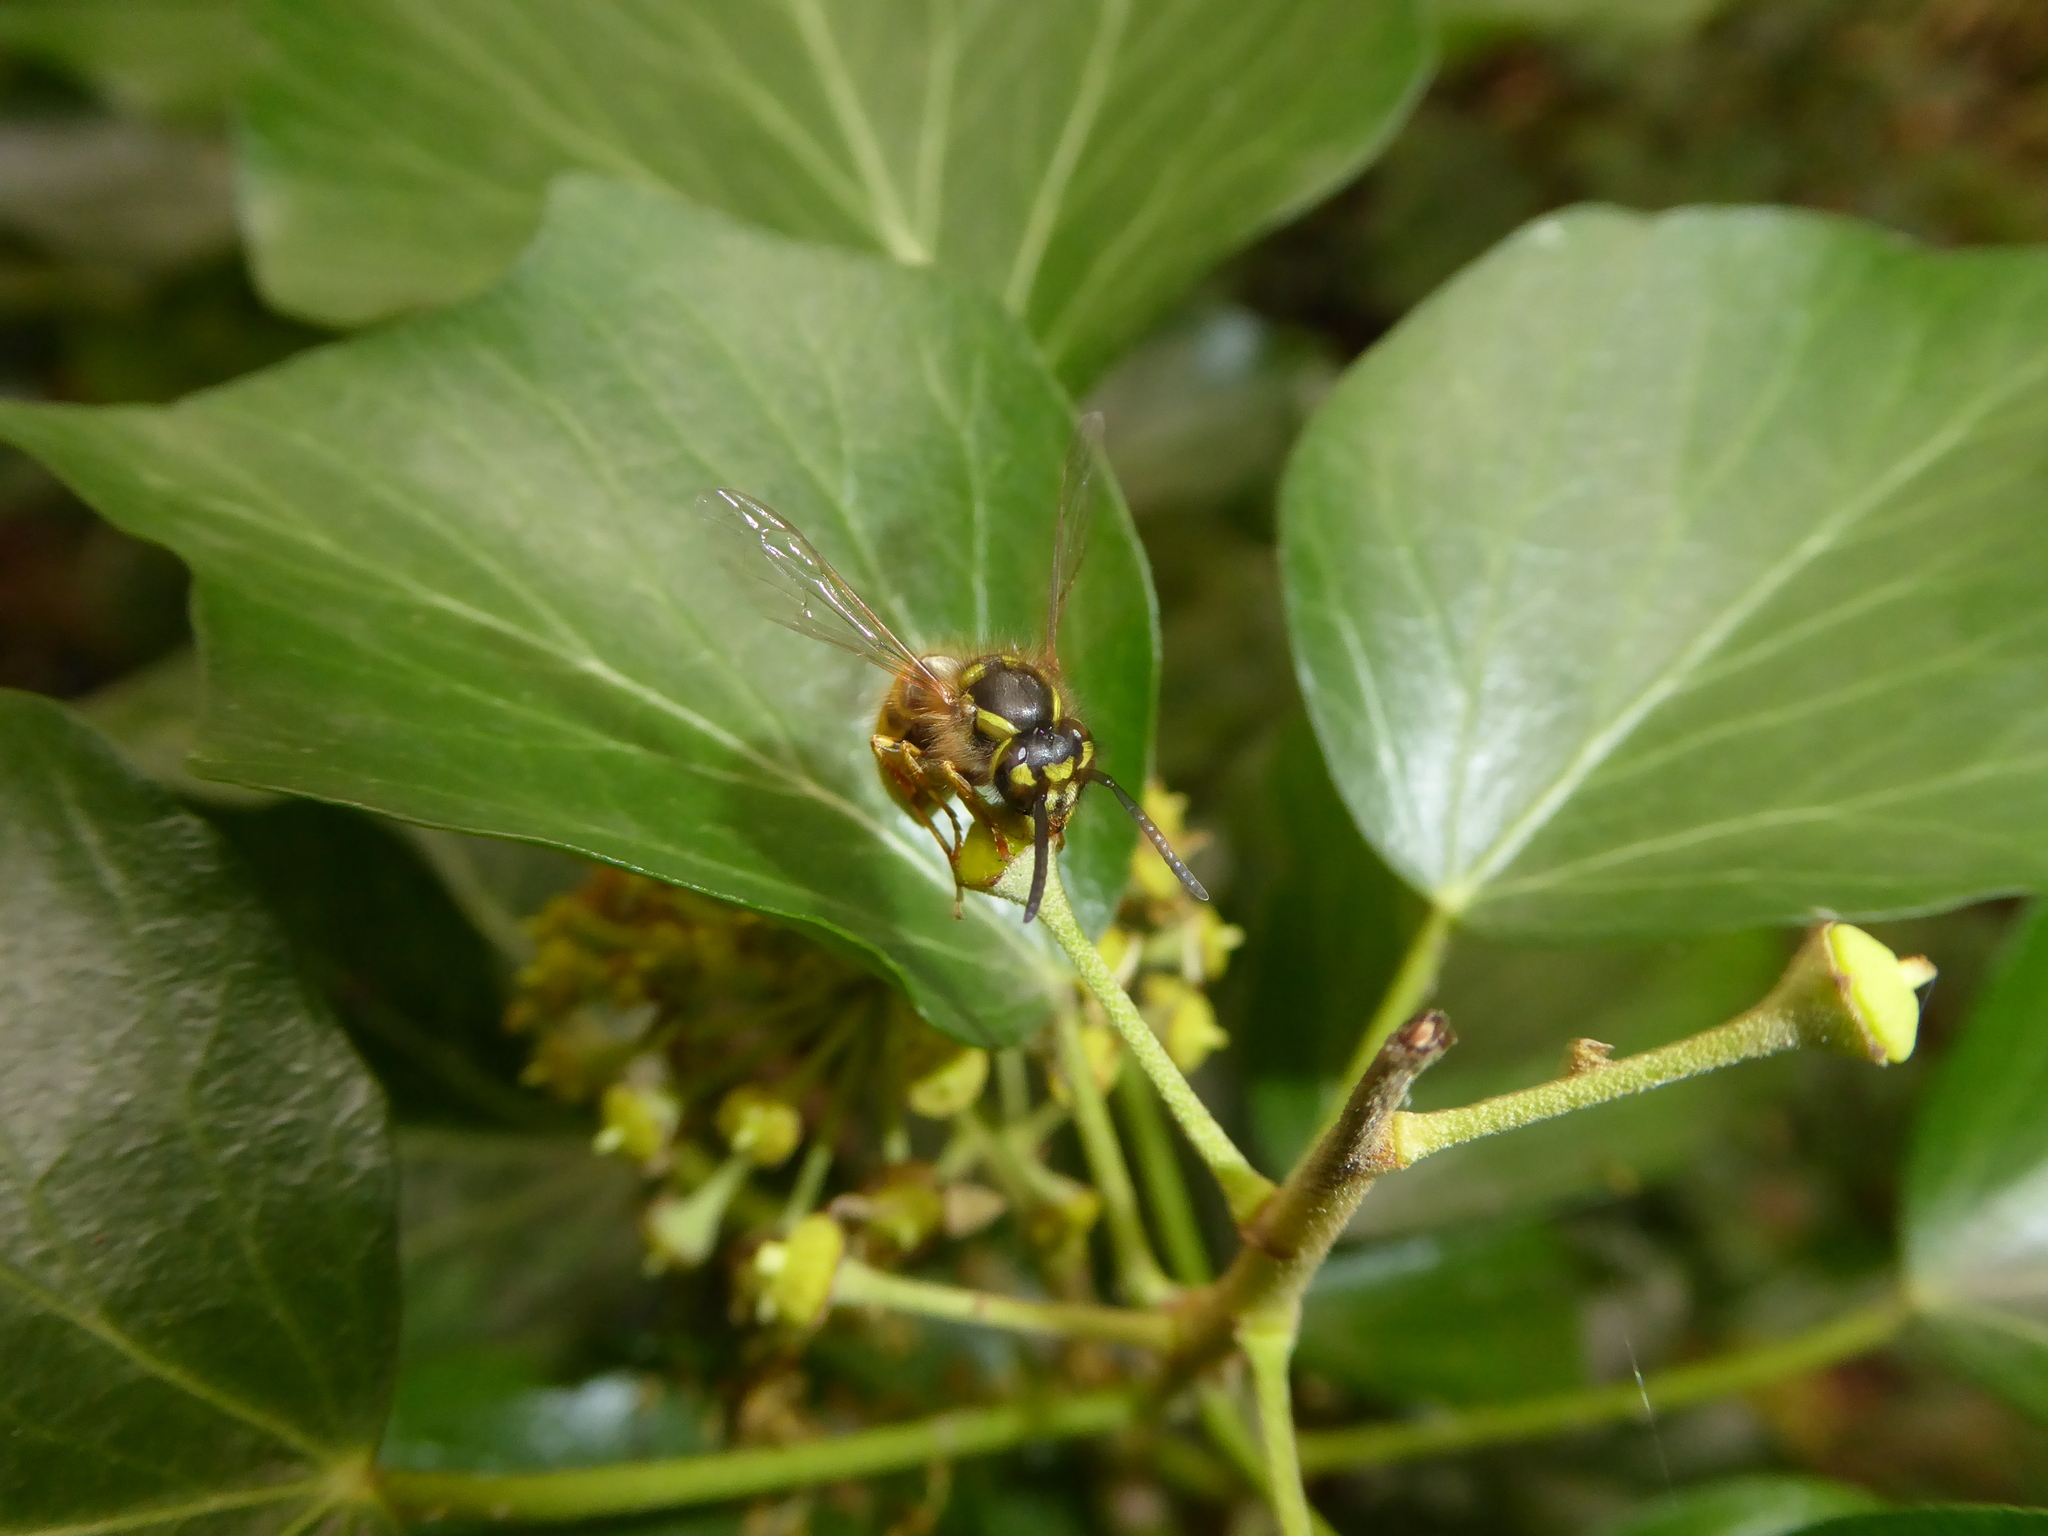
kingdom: Animalia
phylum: Arthropoda
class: Insecta
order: Hymenoptera
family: Vespidae
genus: Vespula
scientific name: Vespula vulgaris
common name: Common wasp
